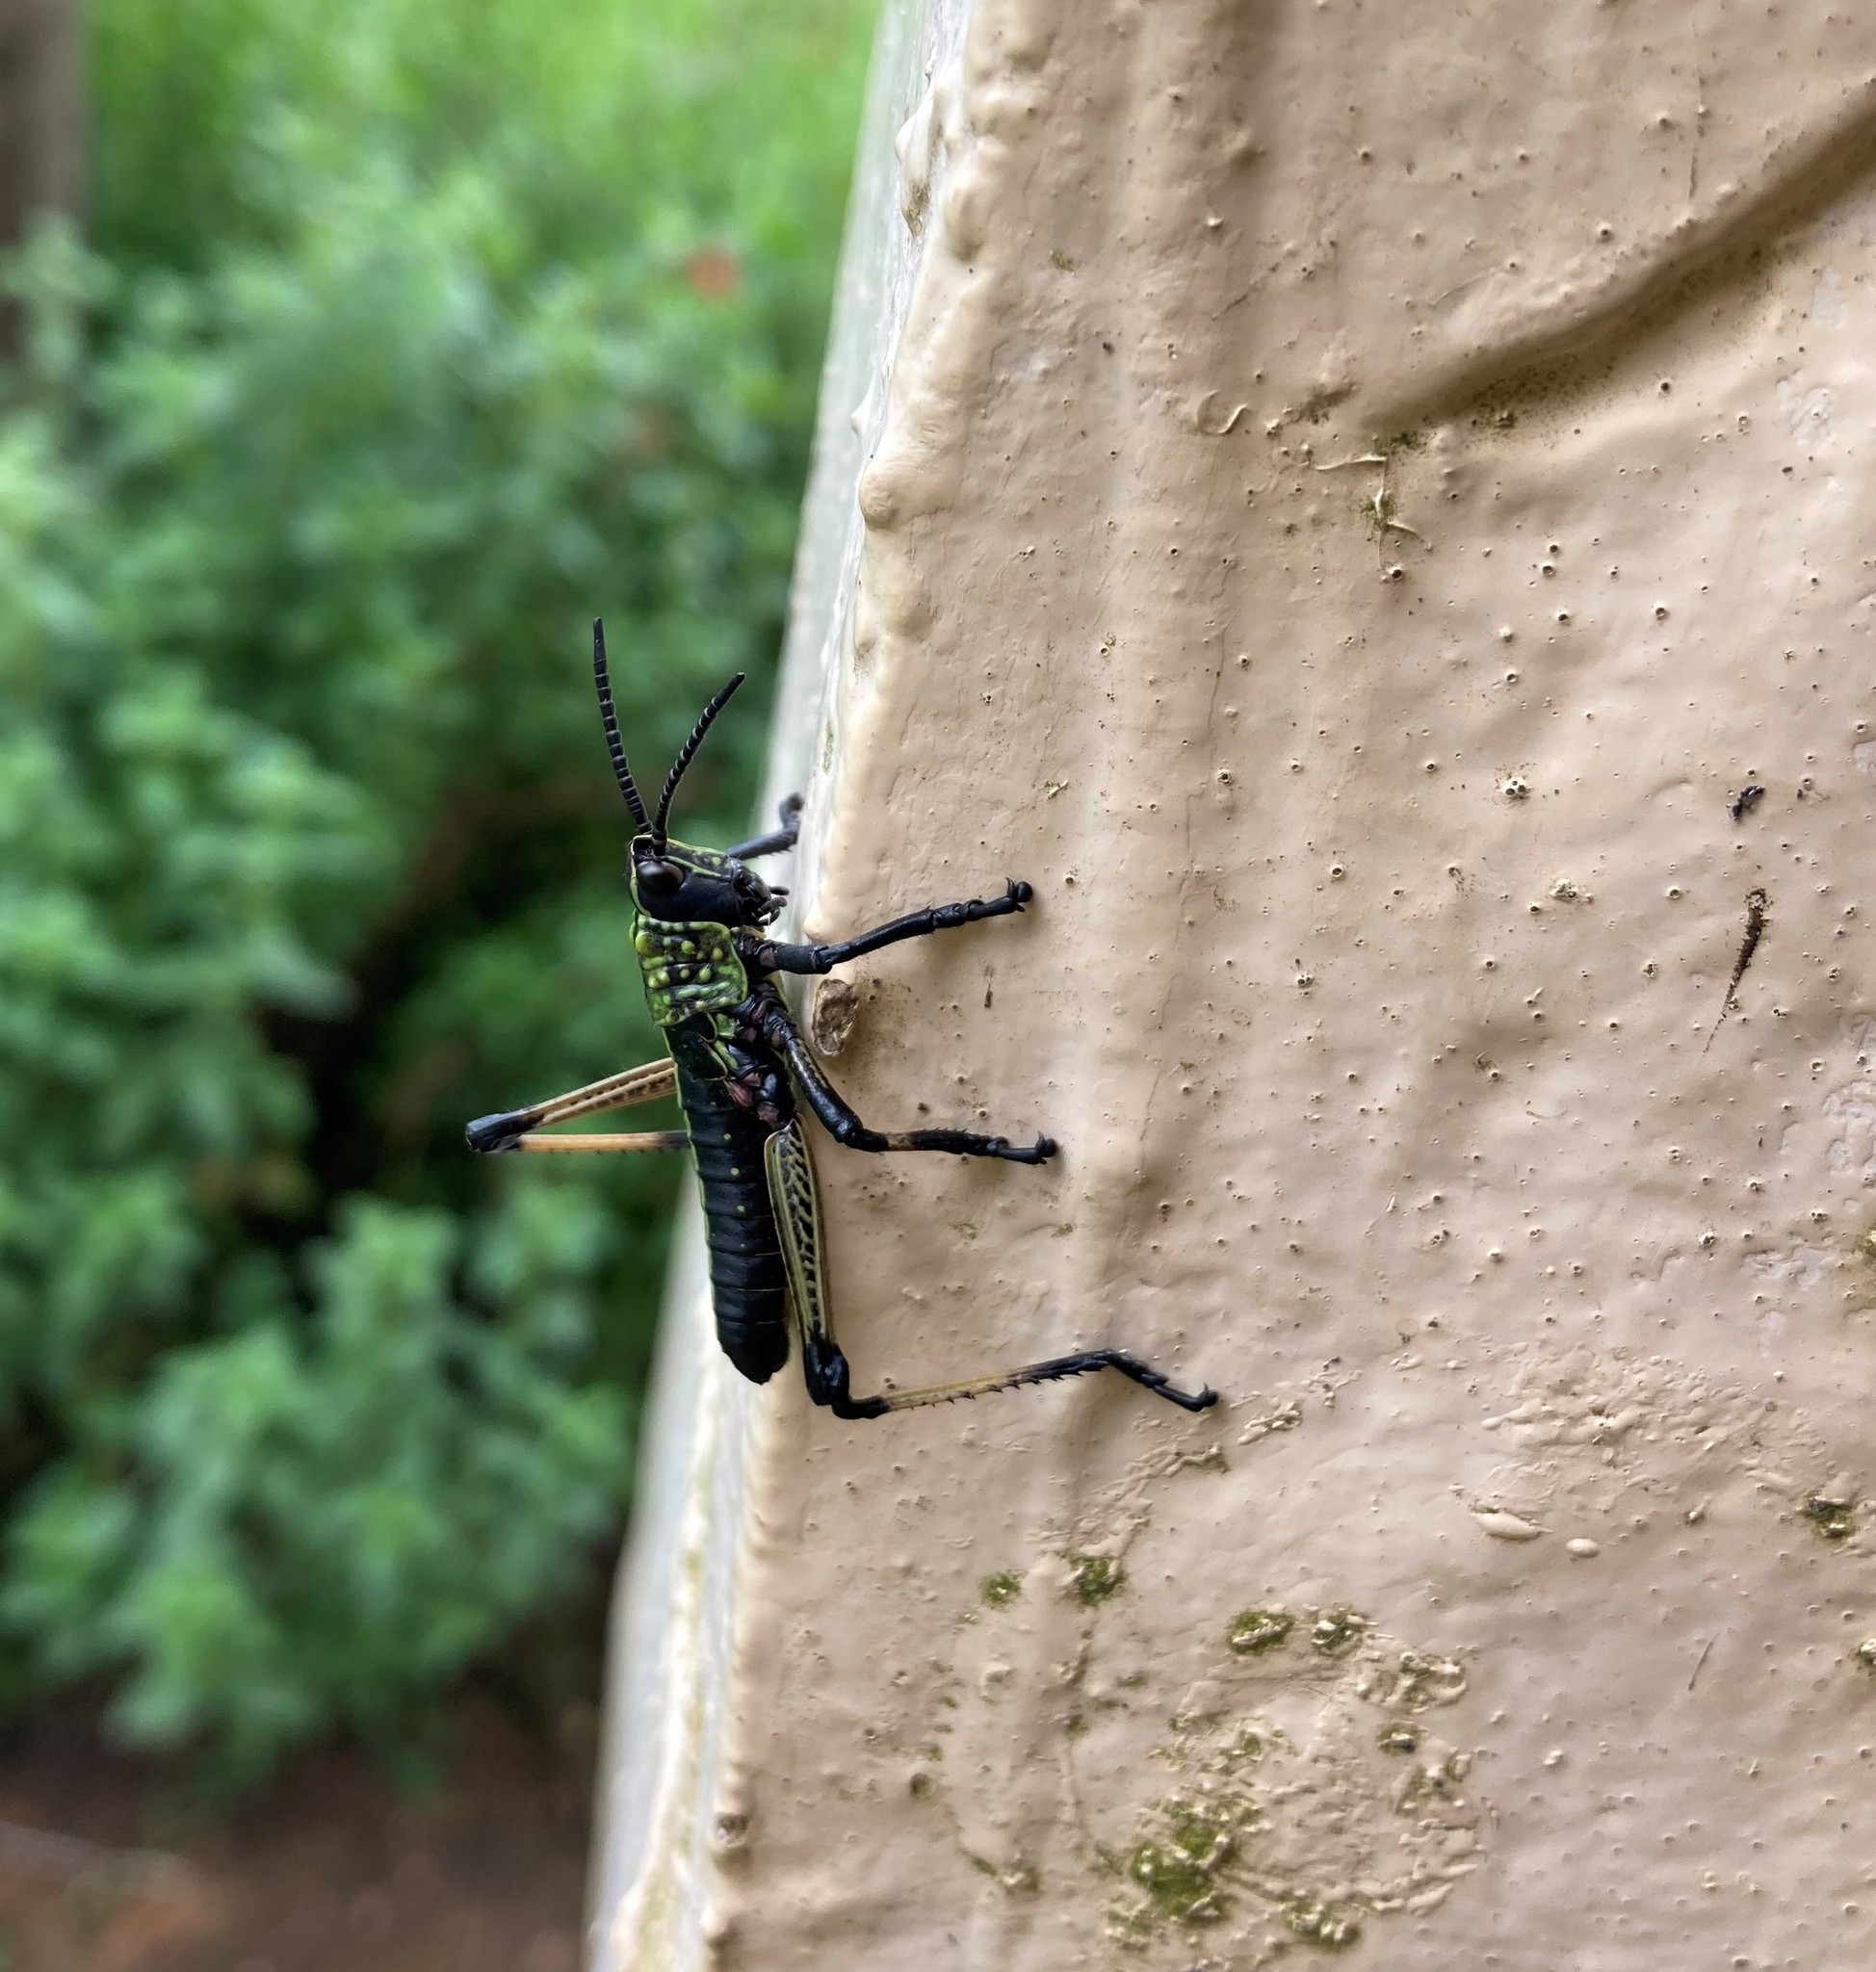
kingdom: Animalia
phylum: Arthropoda
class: Insecta
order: Orthoptera
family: Pyrgomorphidae
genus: Phymateus
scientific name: Phymateus leprosus
